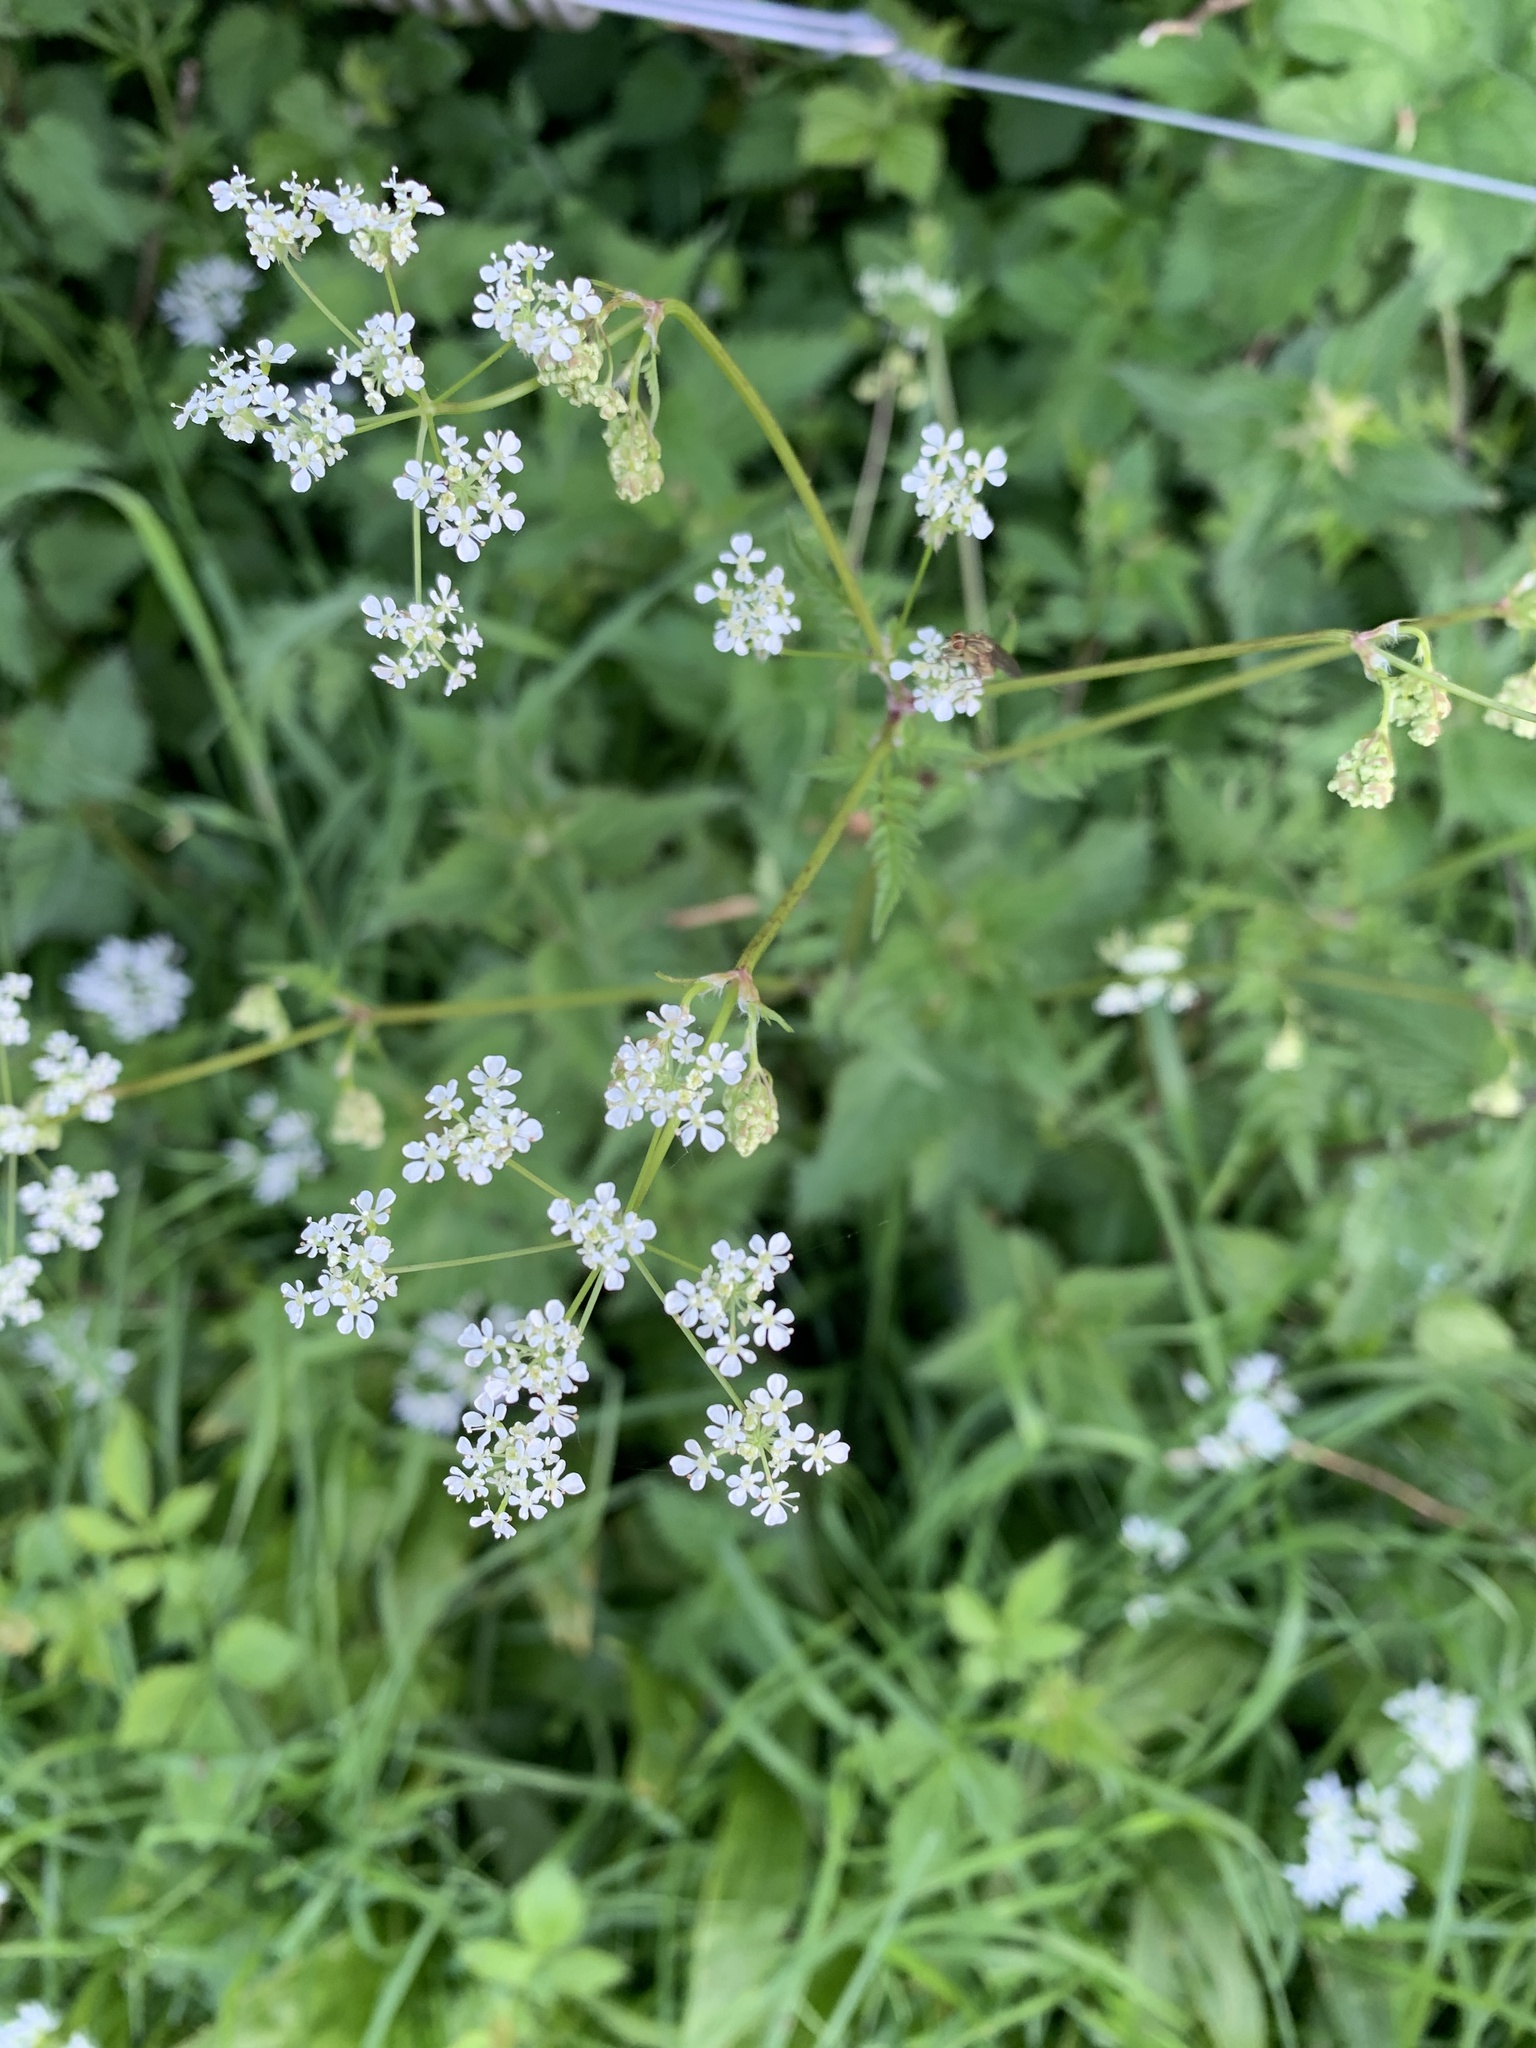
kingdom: Plantae
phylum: Tracheophyta
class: Magnoliopsida
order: Apiales
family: Apiaceae
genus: Anthriscus
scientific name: Anthriscus sylvestris
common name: Cow parsley
